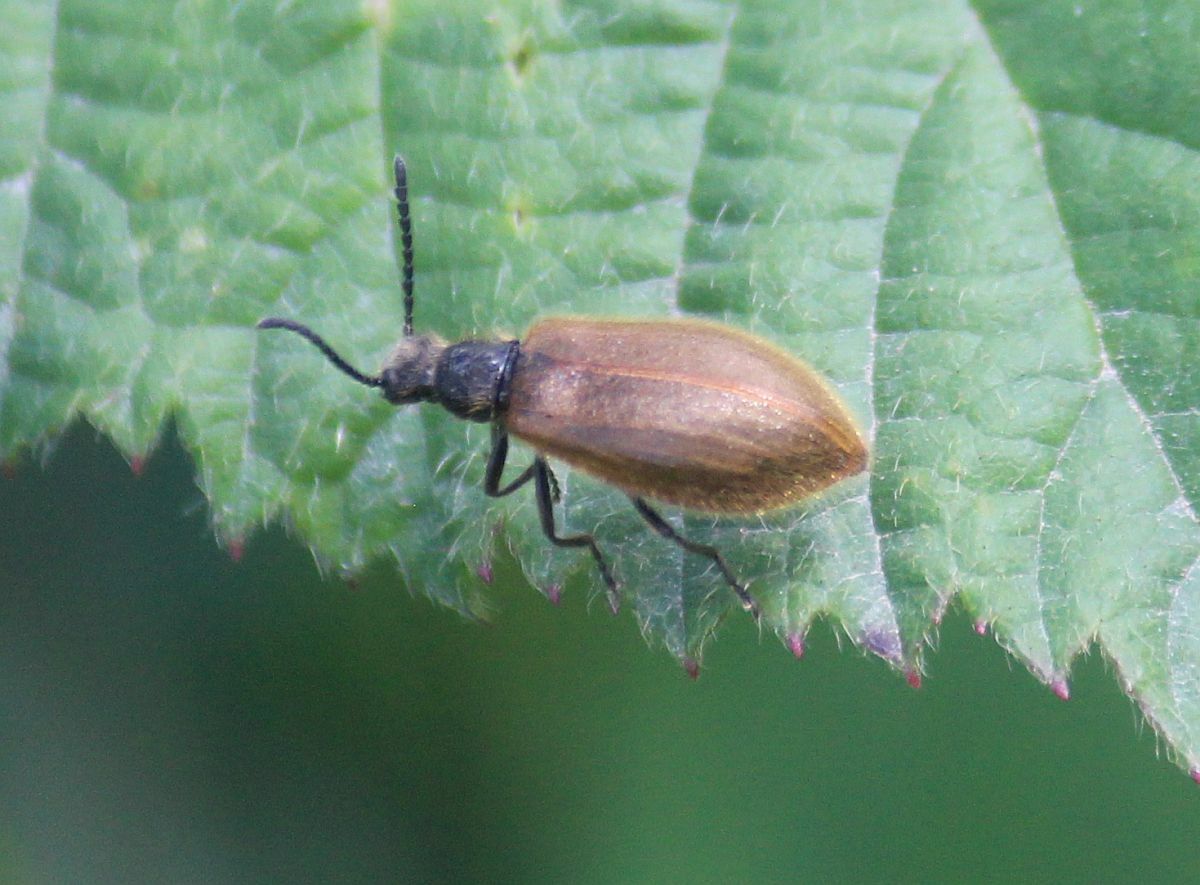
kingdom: Animalia
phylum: Arthropoda
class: Insecta
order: Coleoptera
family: Tenebrionidae
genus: Lagria
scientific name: Lagria hirta
